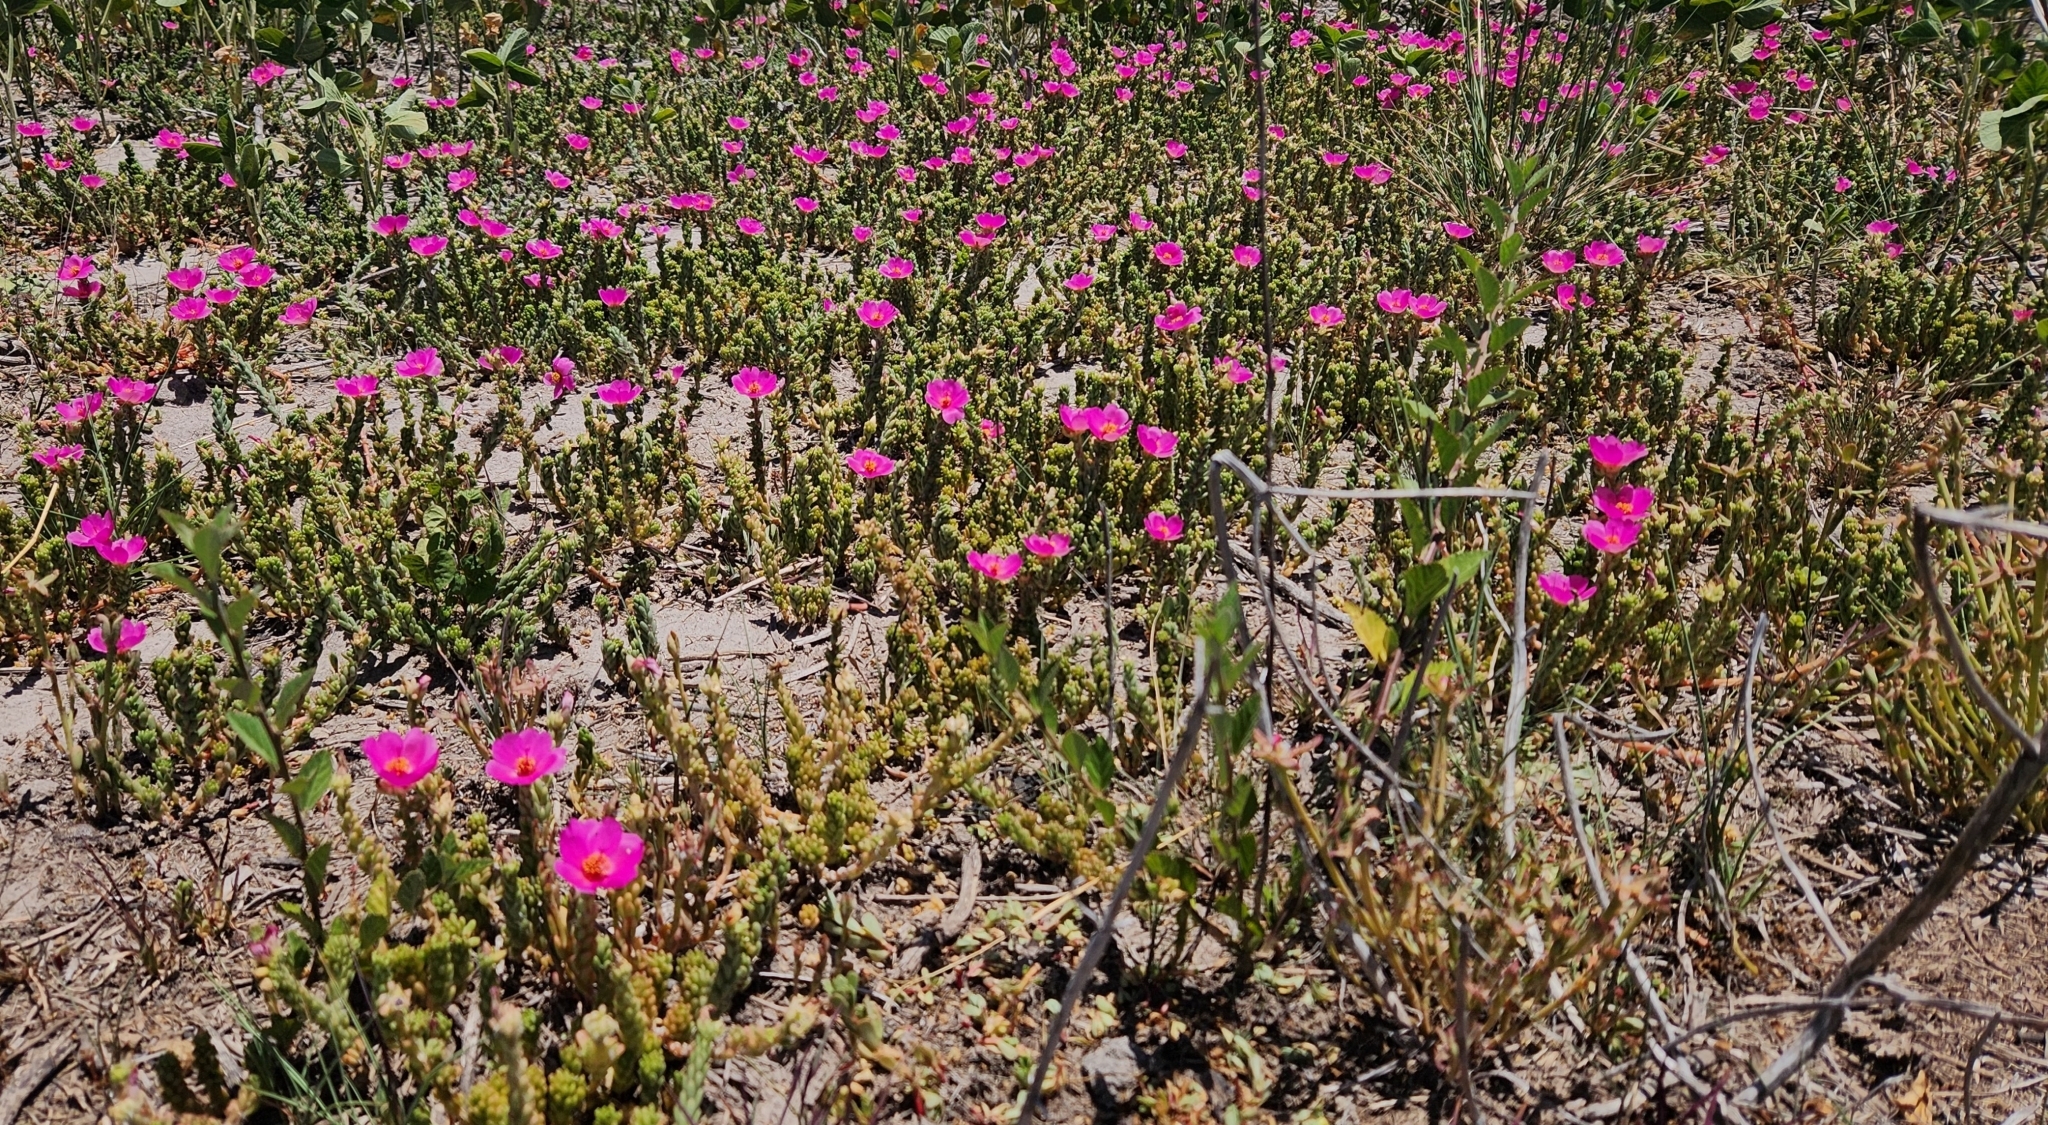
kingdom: Plantae
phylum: Tracheophyta
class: Magnoliopsida
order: Caryophyllales
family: Portulacaceae
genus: Portulaca
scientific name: Portulaca gilliesii
